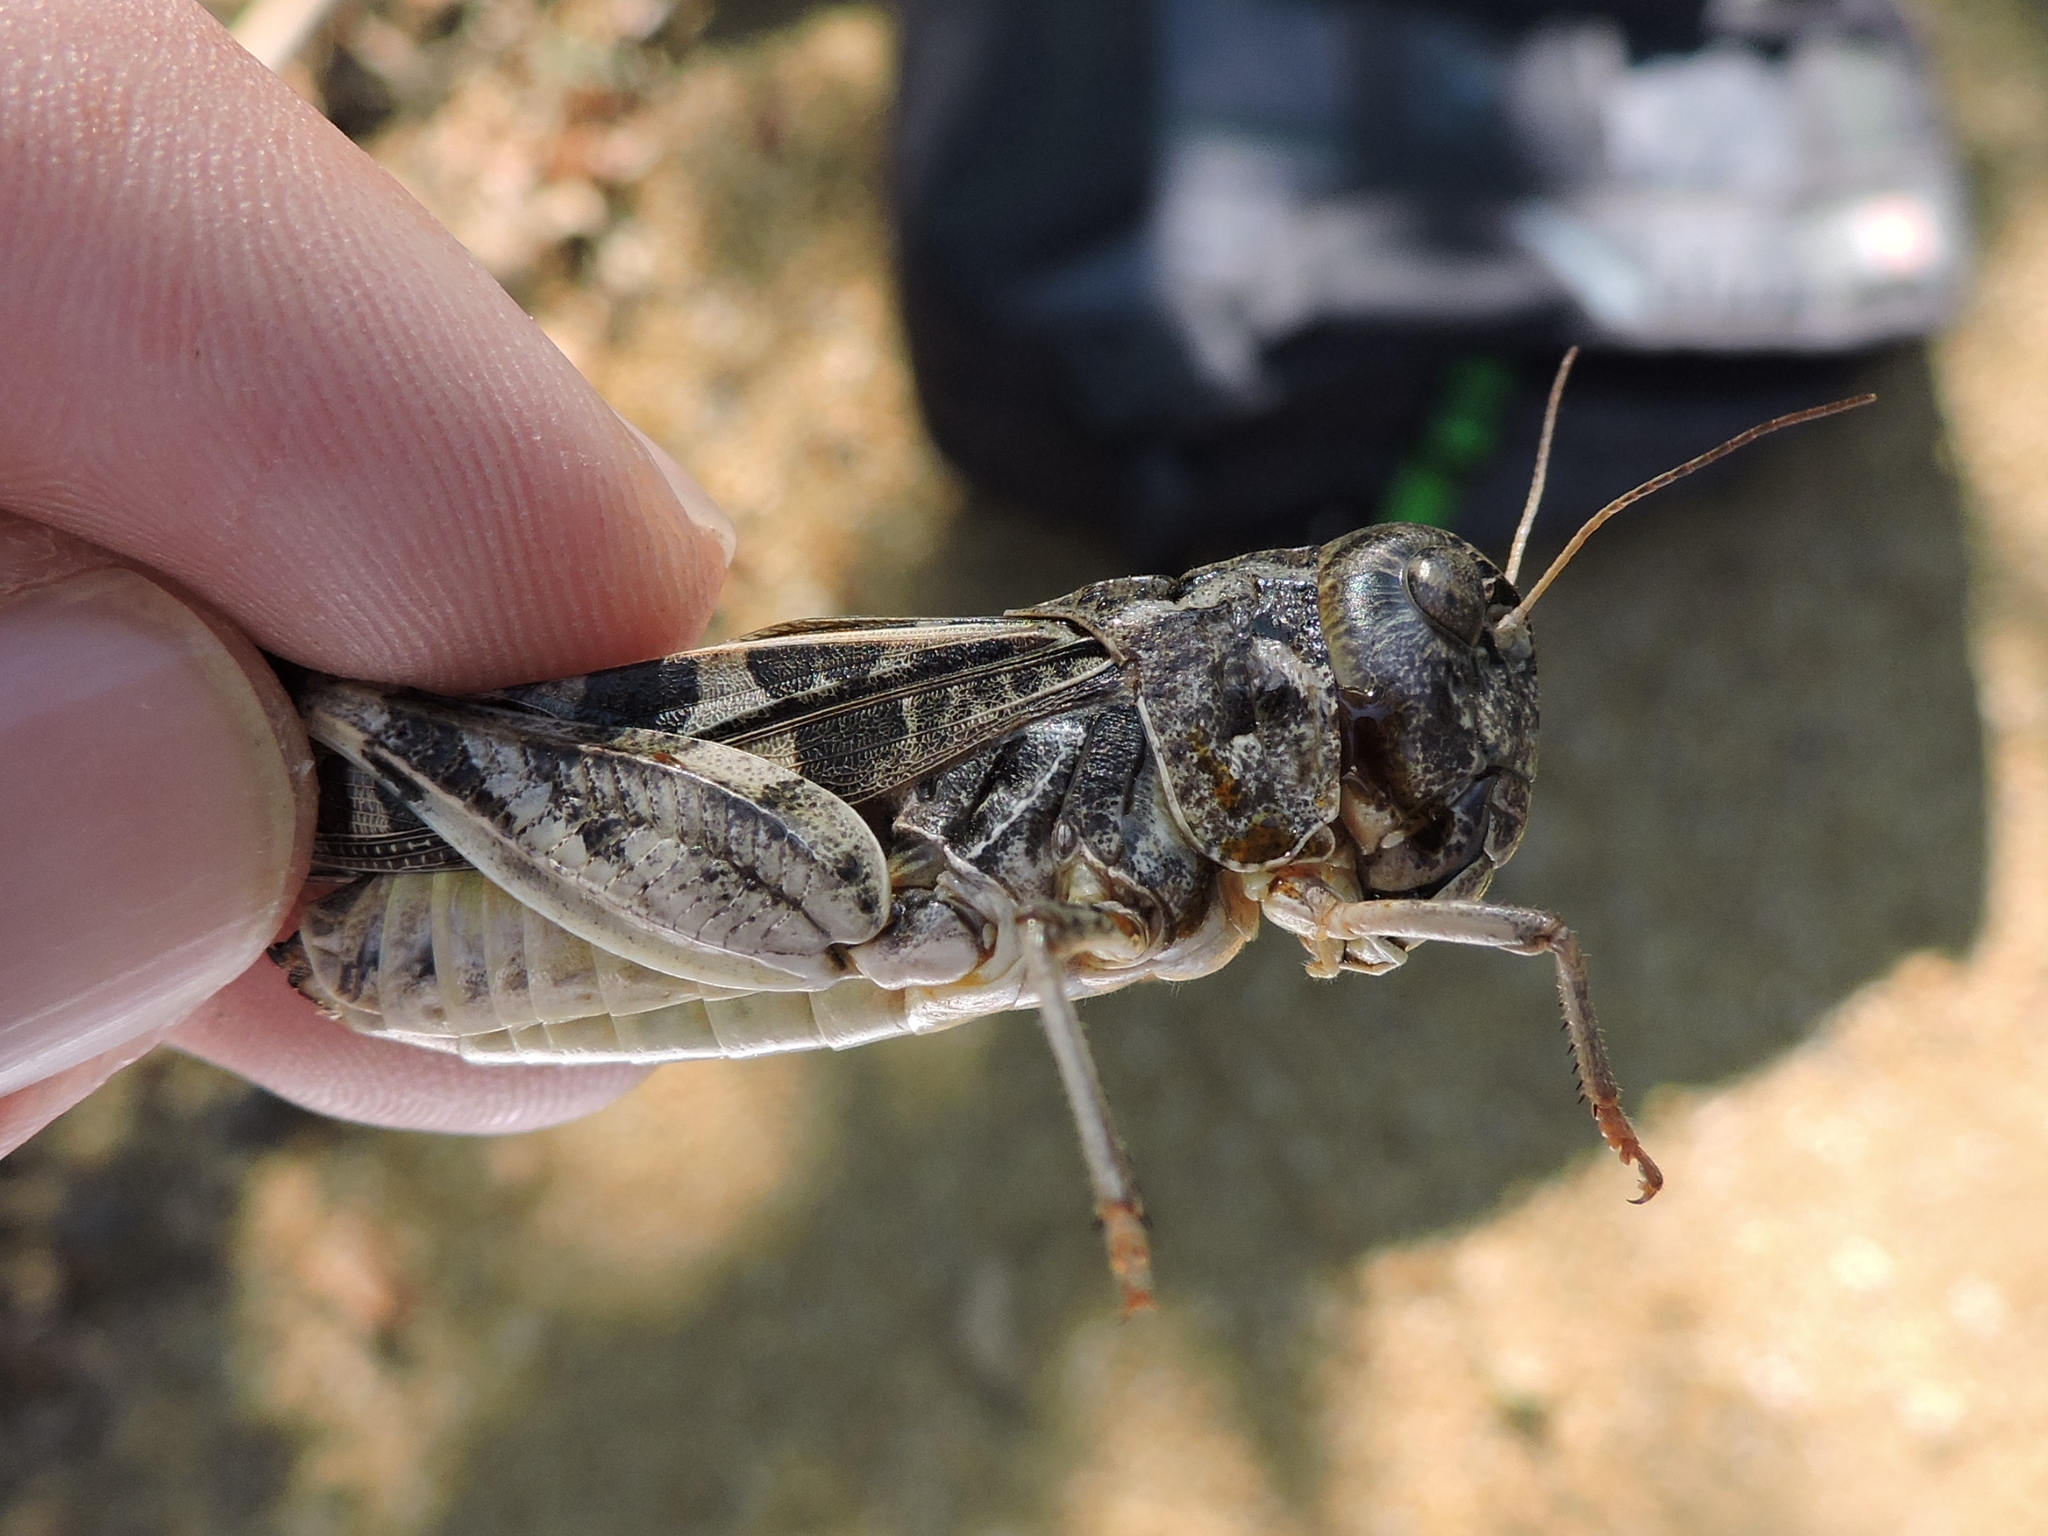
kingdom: Animalia
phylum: Arthropoda
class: Insecta
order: Orthoptera
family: Acrididae
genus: Hippiscus
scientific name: Hippiscus ocelote
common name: Wrinkled grasshopper
